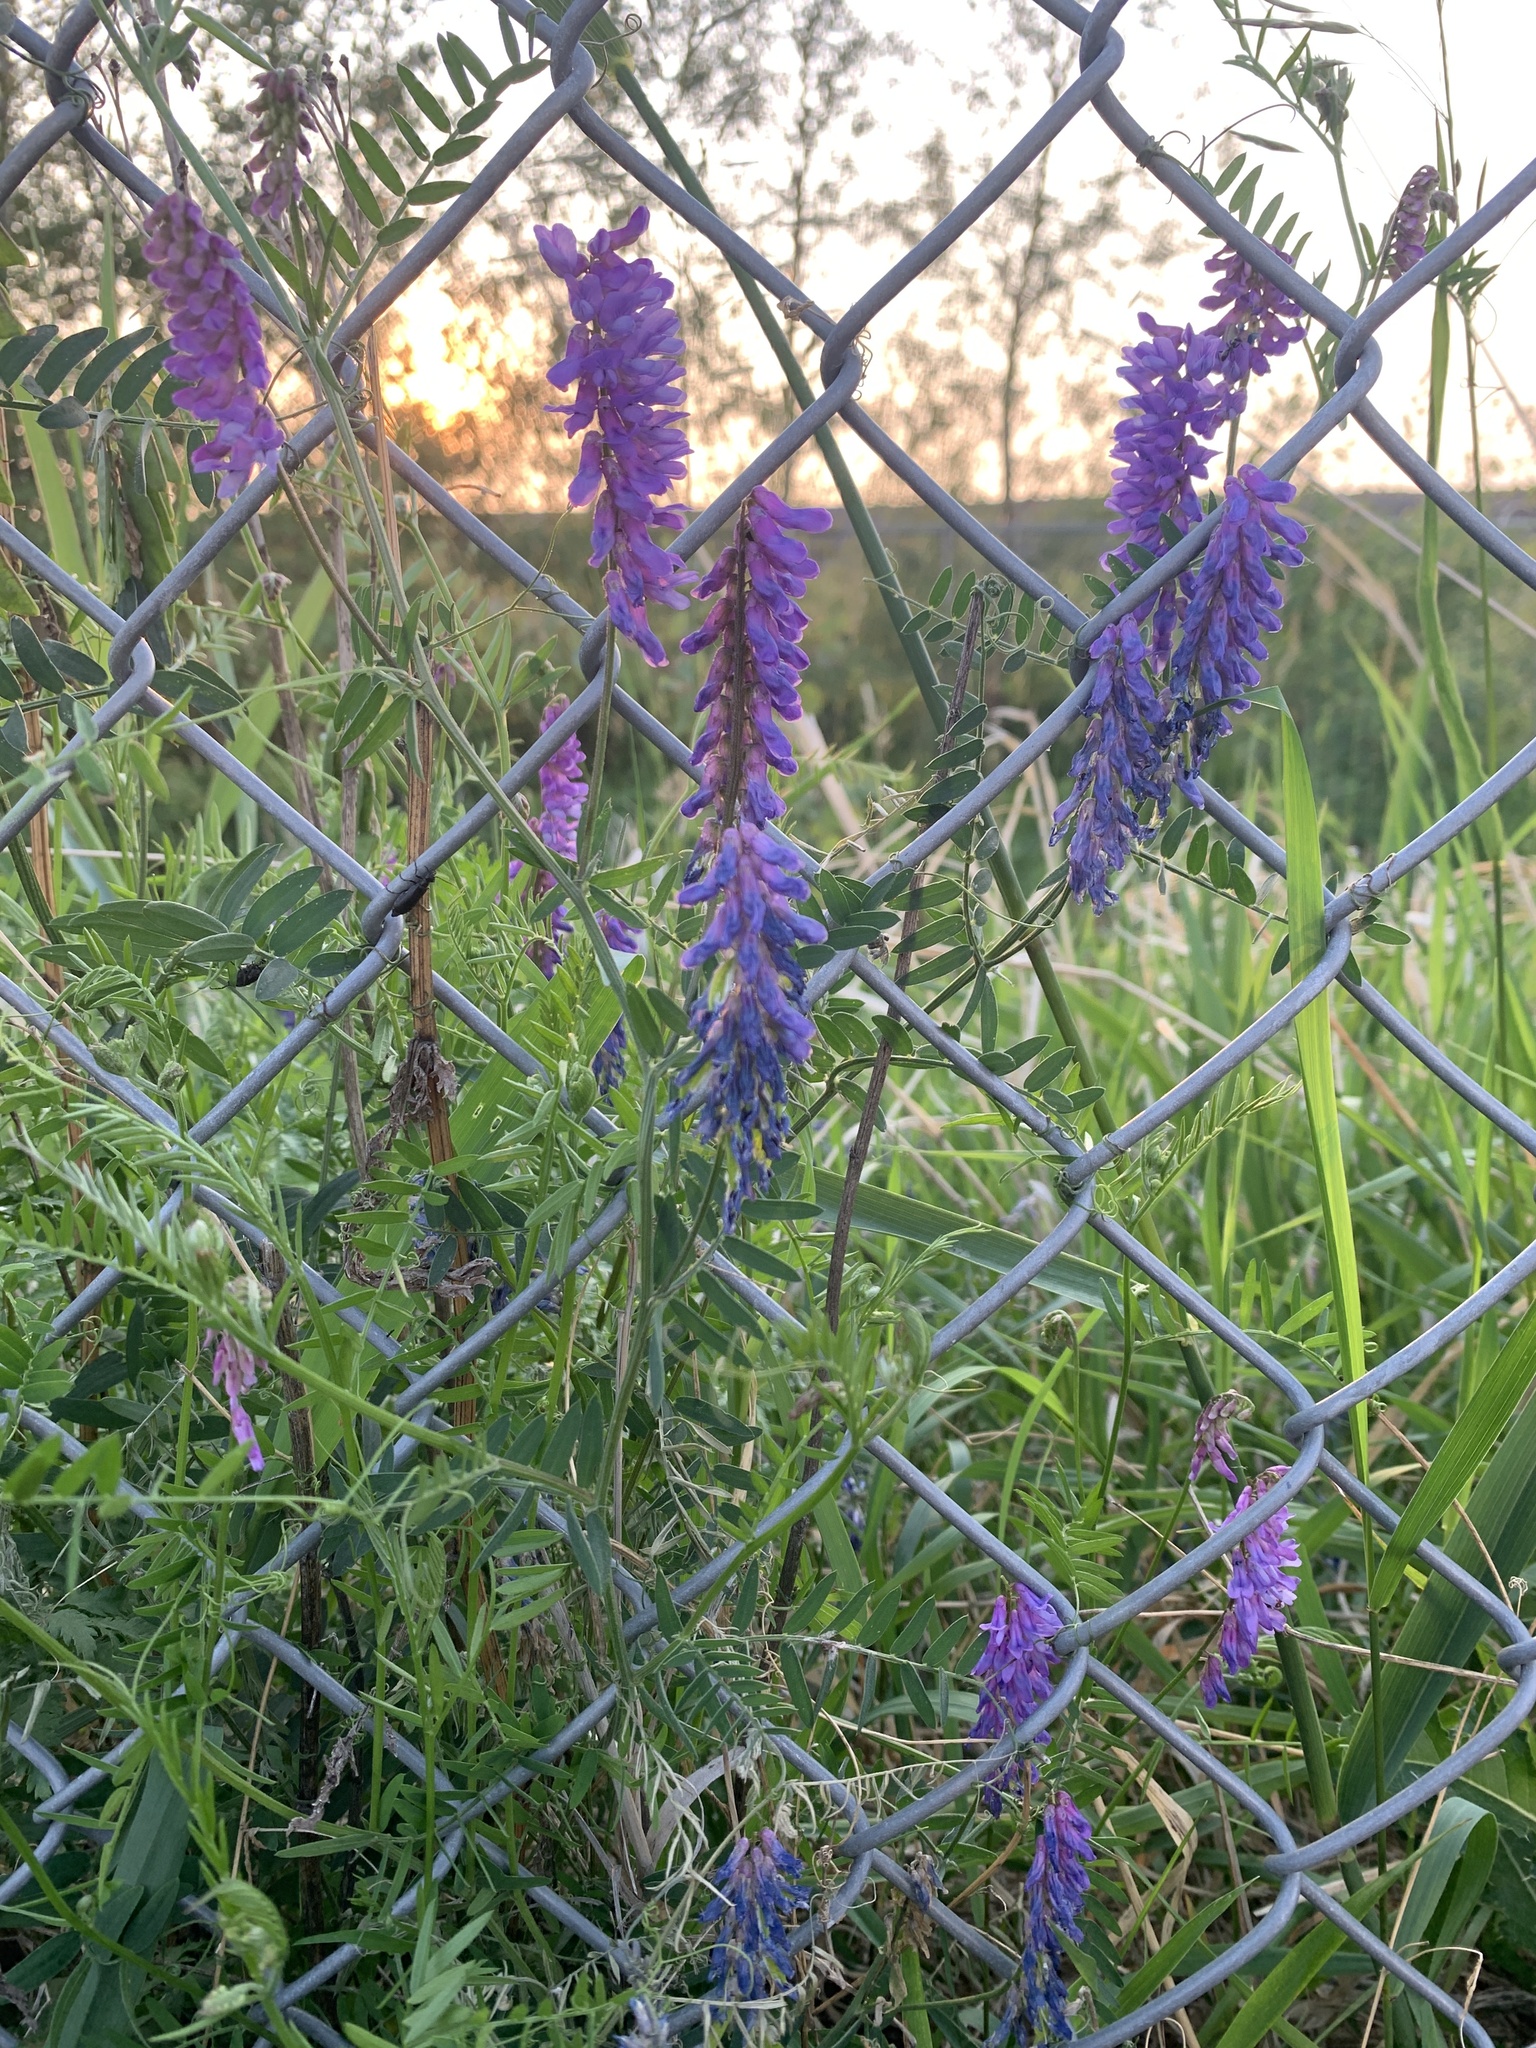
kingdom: Plantae
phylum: Tracheophyta
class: Magnoliopsida
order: Fabales
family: Fabaceae
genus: Vicia
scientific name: Vicia cracca
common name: Bird vetch
